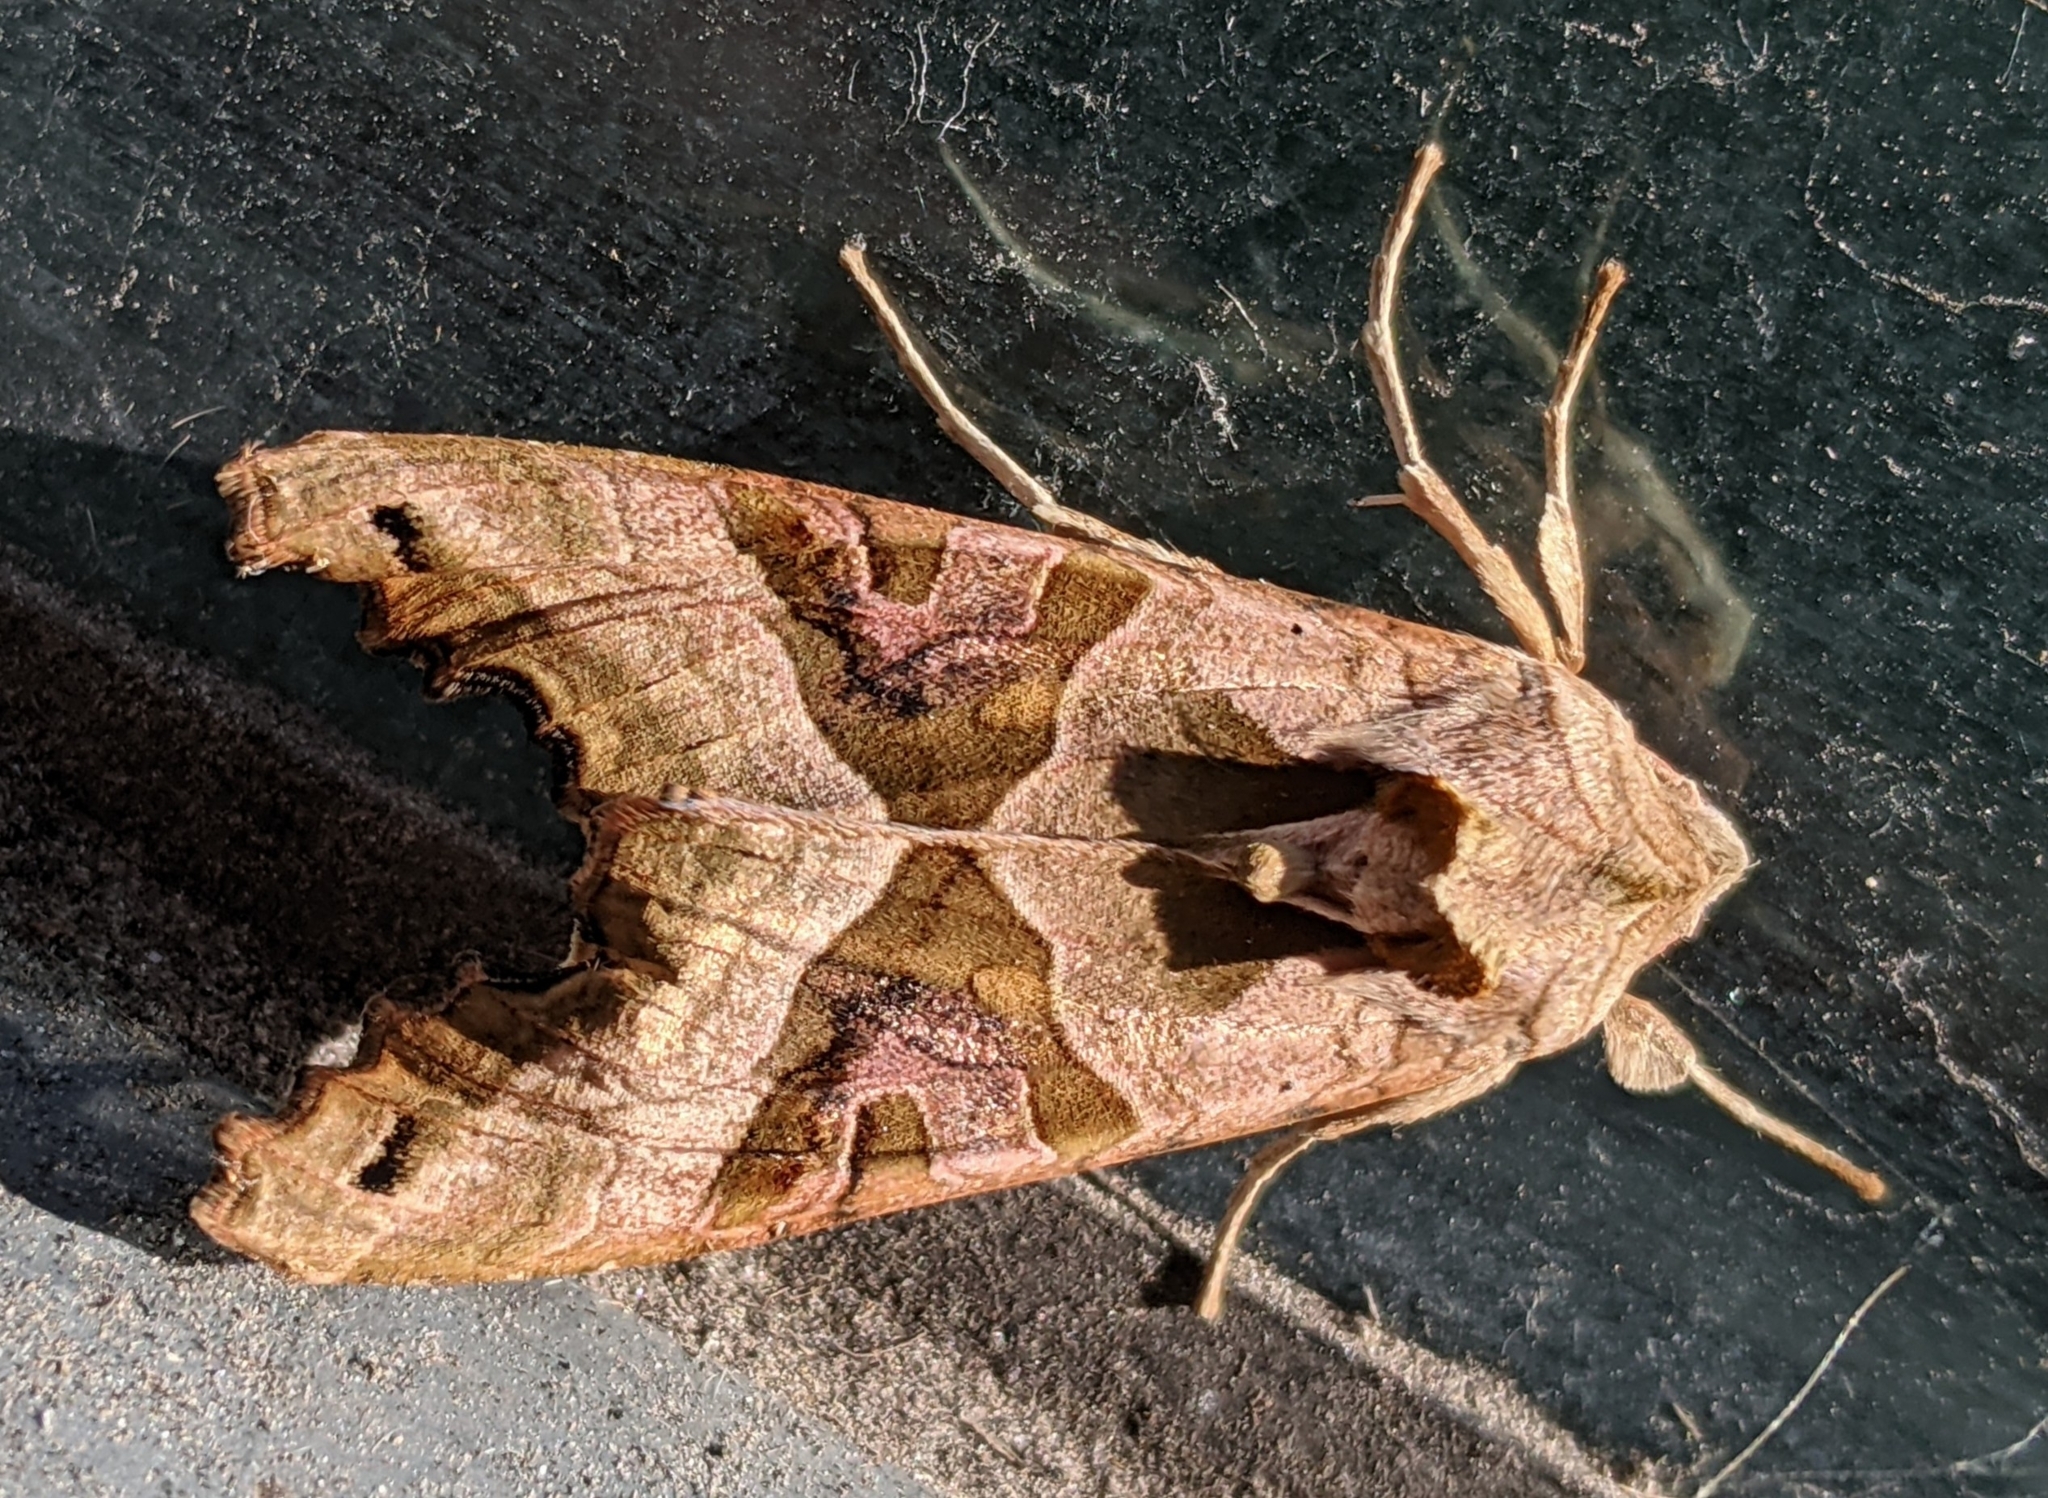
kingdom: Animalia
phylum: Arthropoda
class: Insecta
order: Lepidoptera
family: Noctuidae
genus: Phlogophora
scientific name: Phlogophora meticulosa
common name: Angle shades
